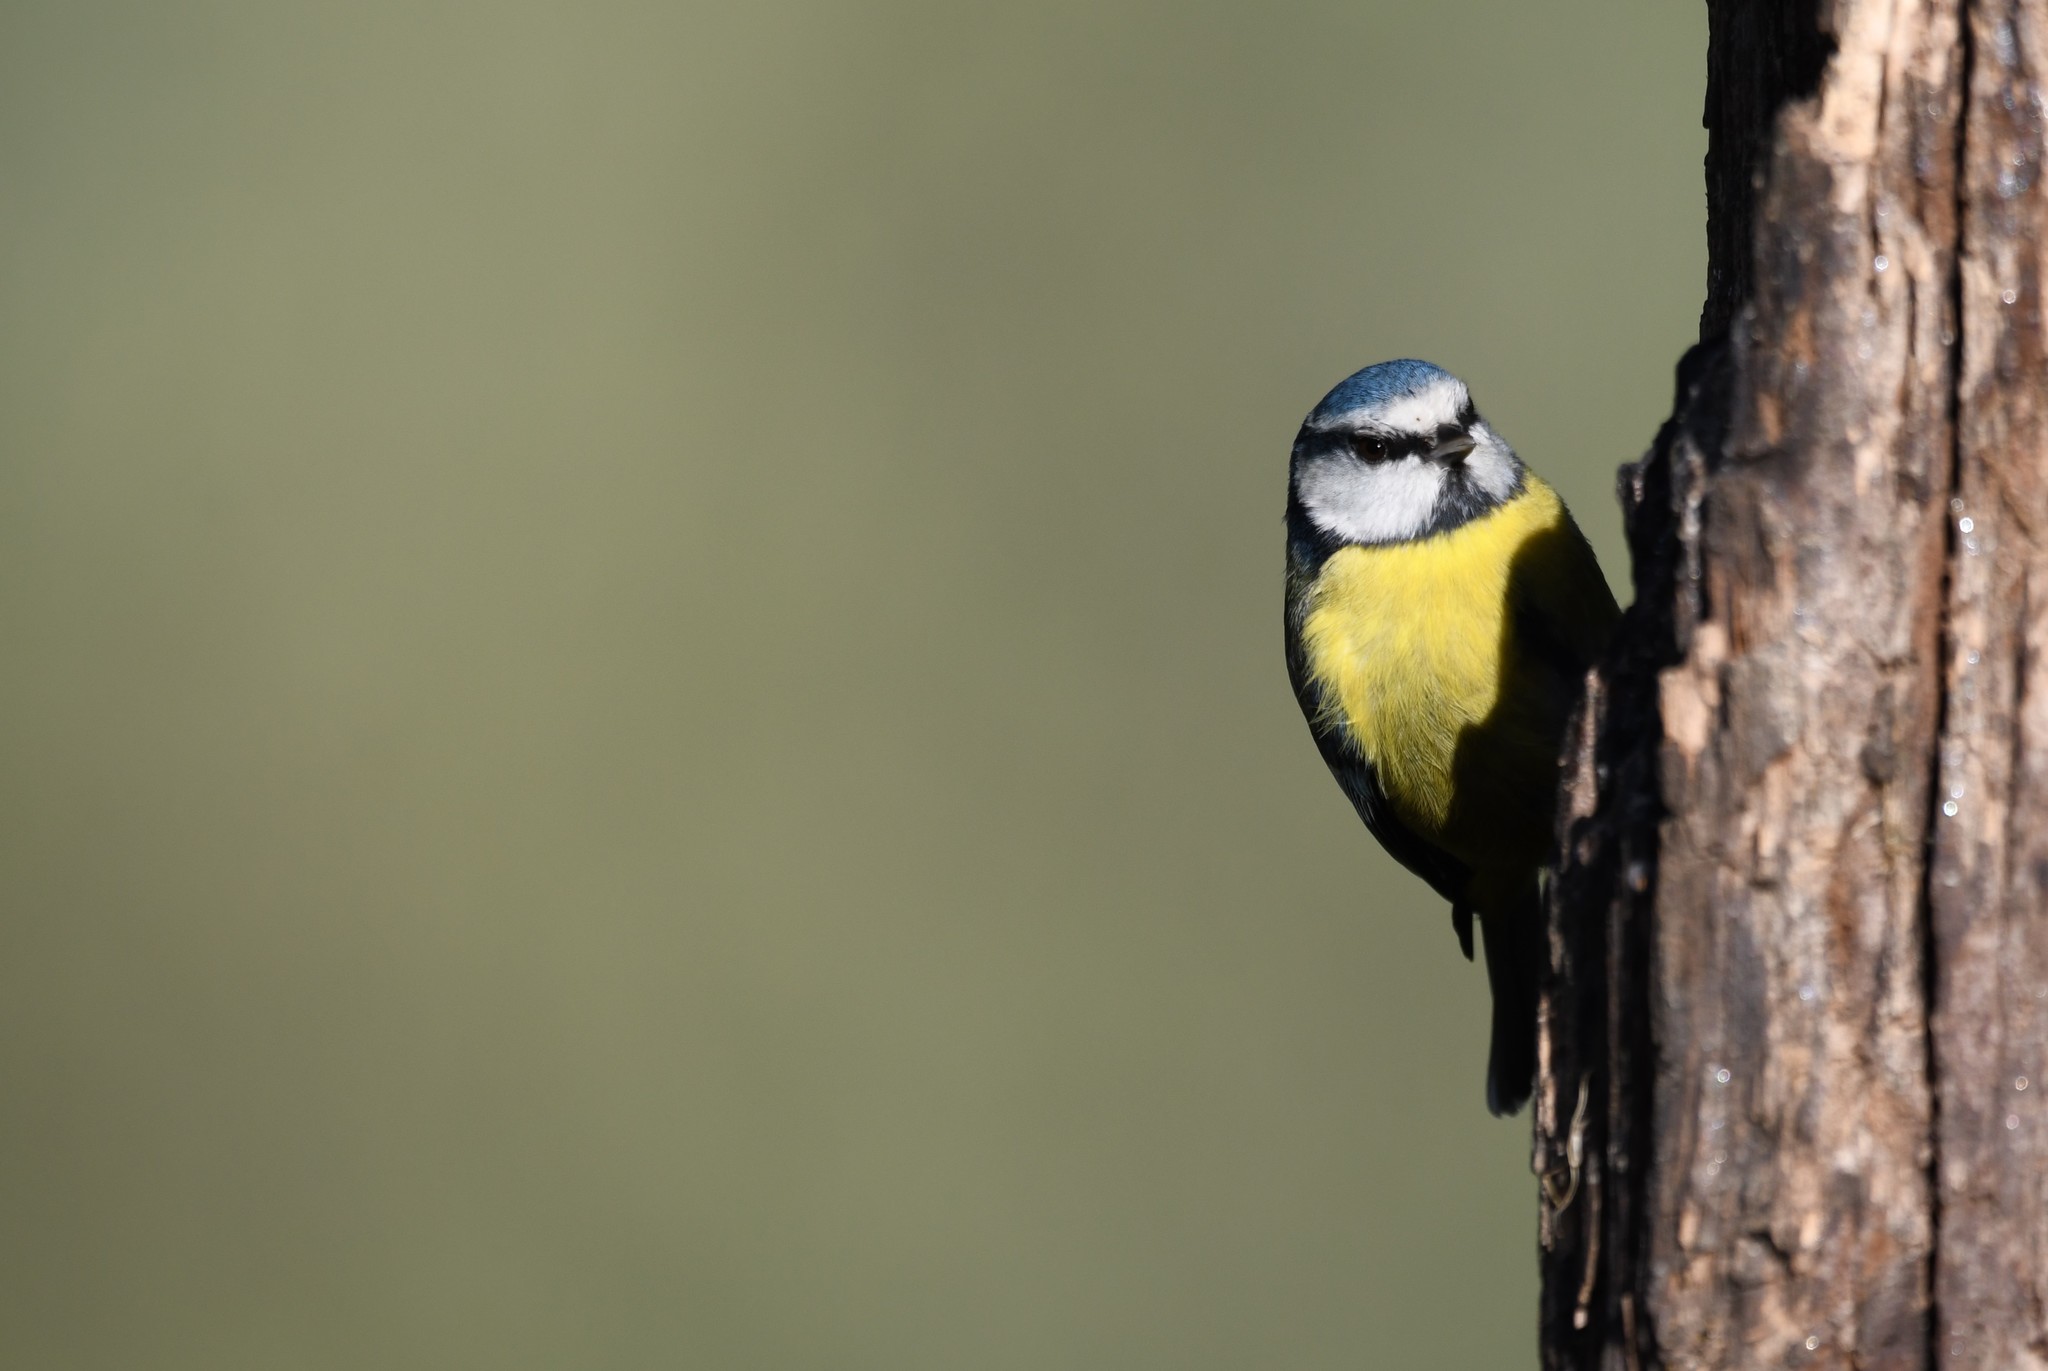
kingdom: Animalia
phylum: Chordata
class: Aves
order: Passeriformes
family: Paridae
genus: Cyanistes
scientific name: Cyanistes caeruleus
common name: Eurasian blue tit
